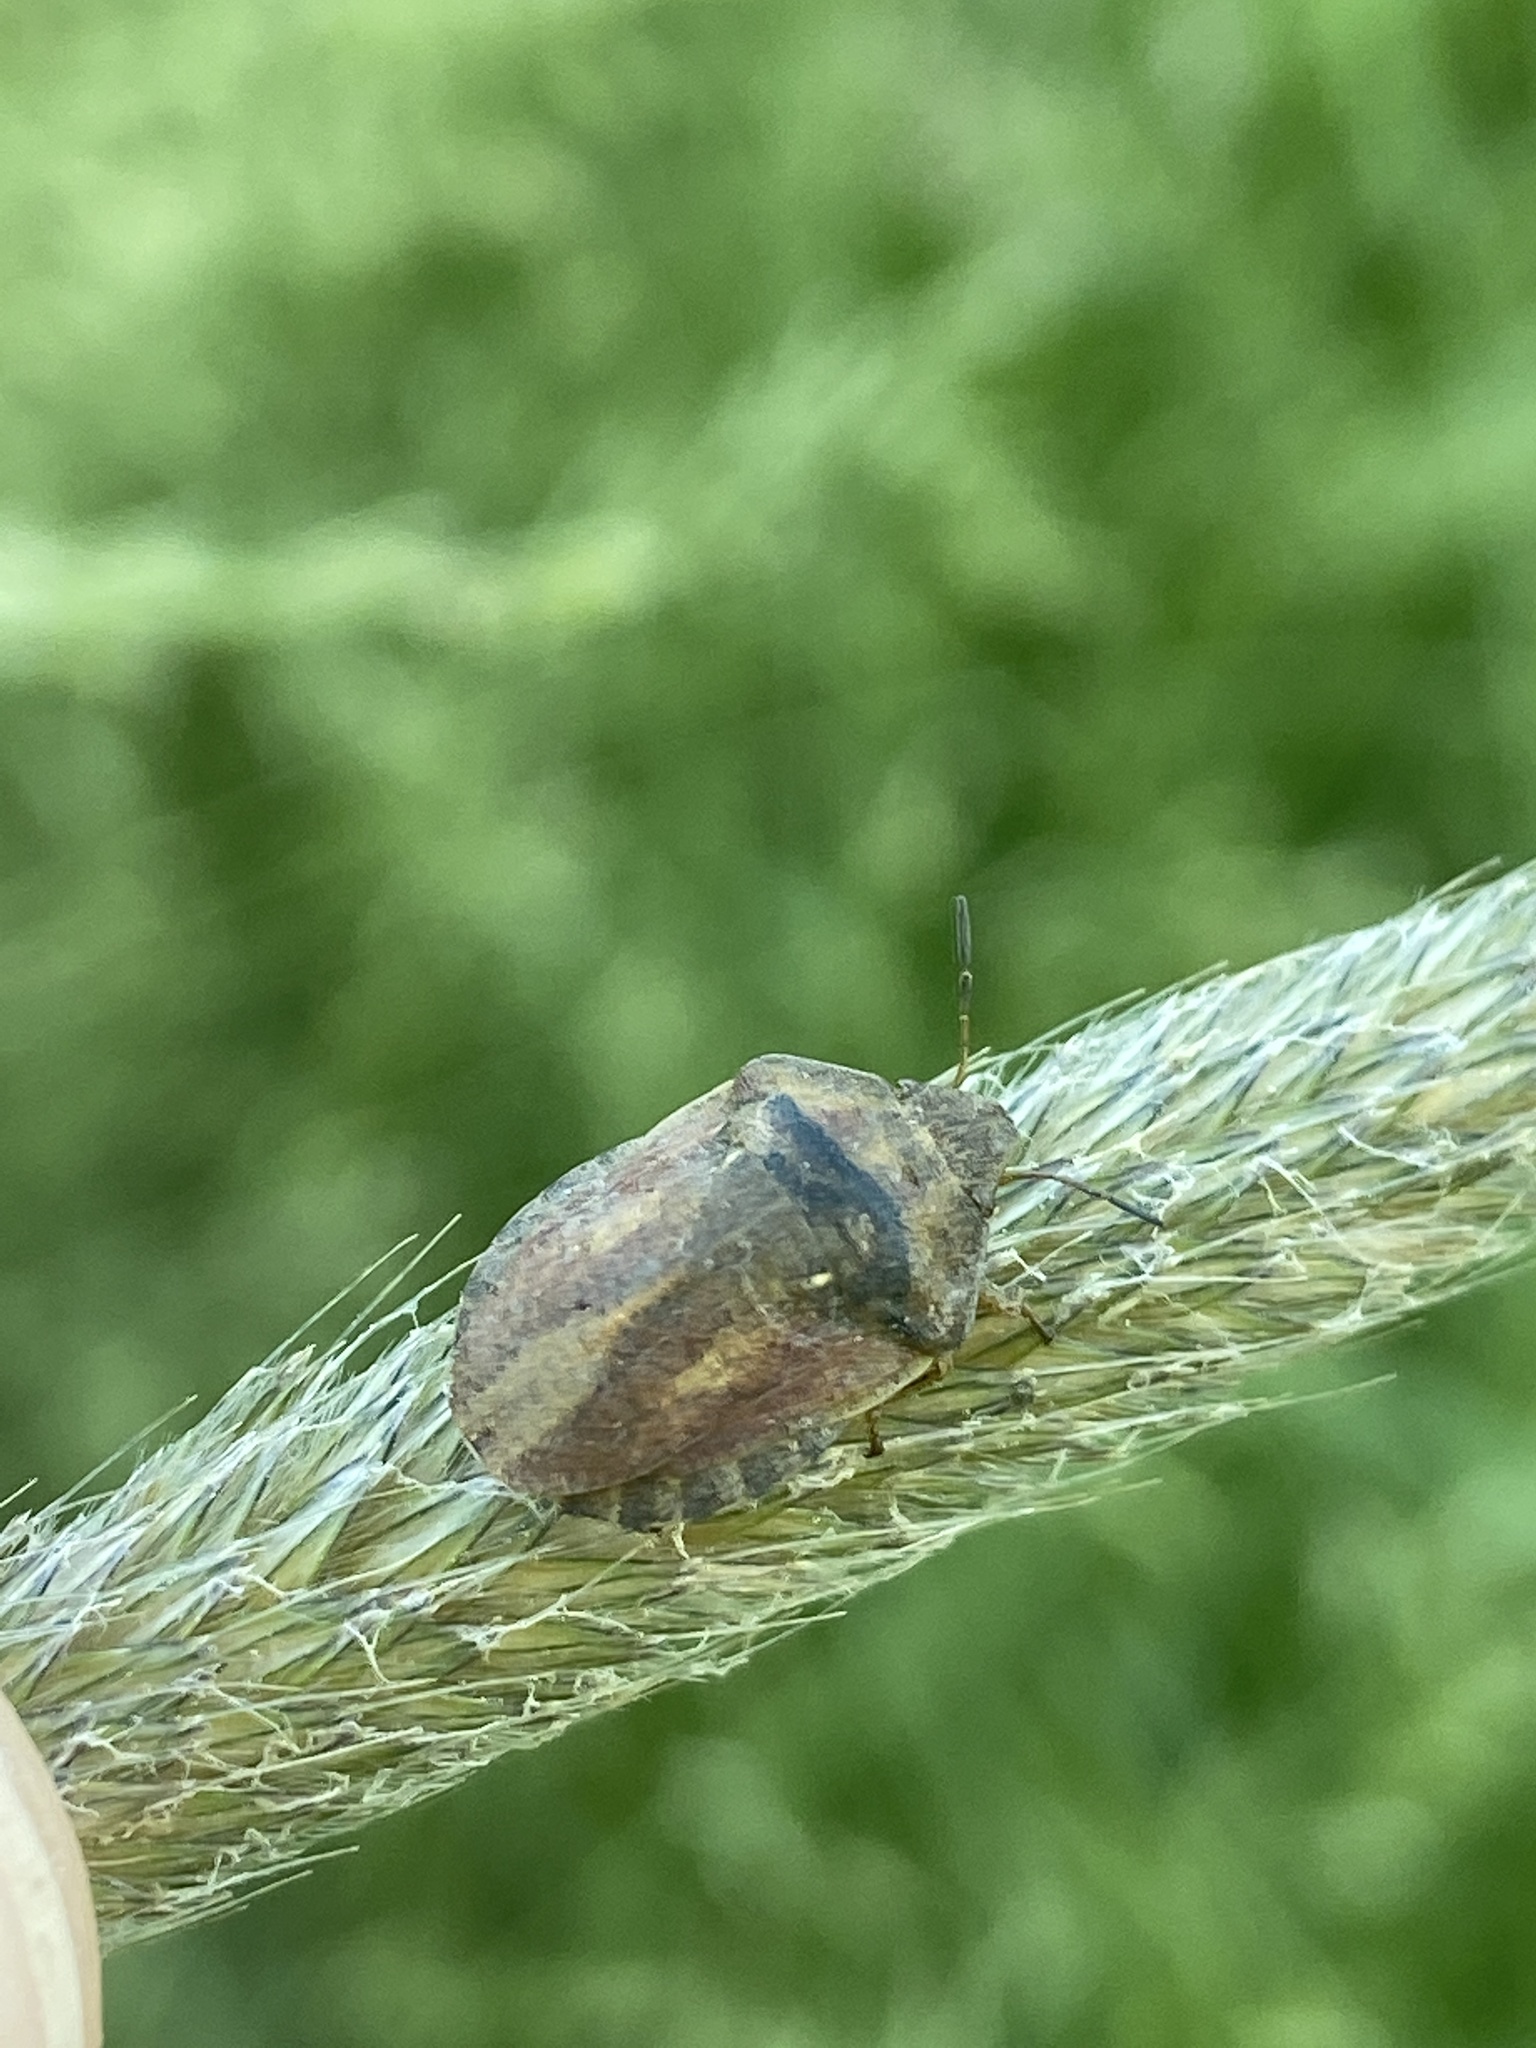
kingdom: Animalia
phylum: Arthropoda
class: Insecta
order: Hemiptera
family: Scutelleridae
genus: Eurygaster
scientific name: Eurygaster testudinaria
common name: Tortoise bug
